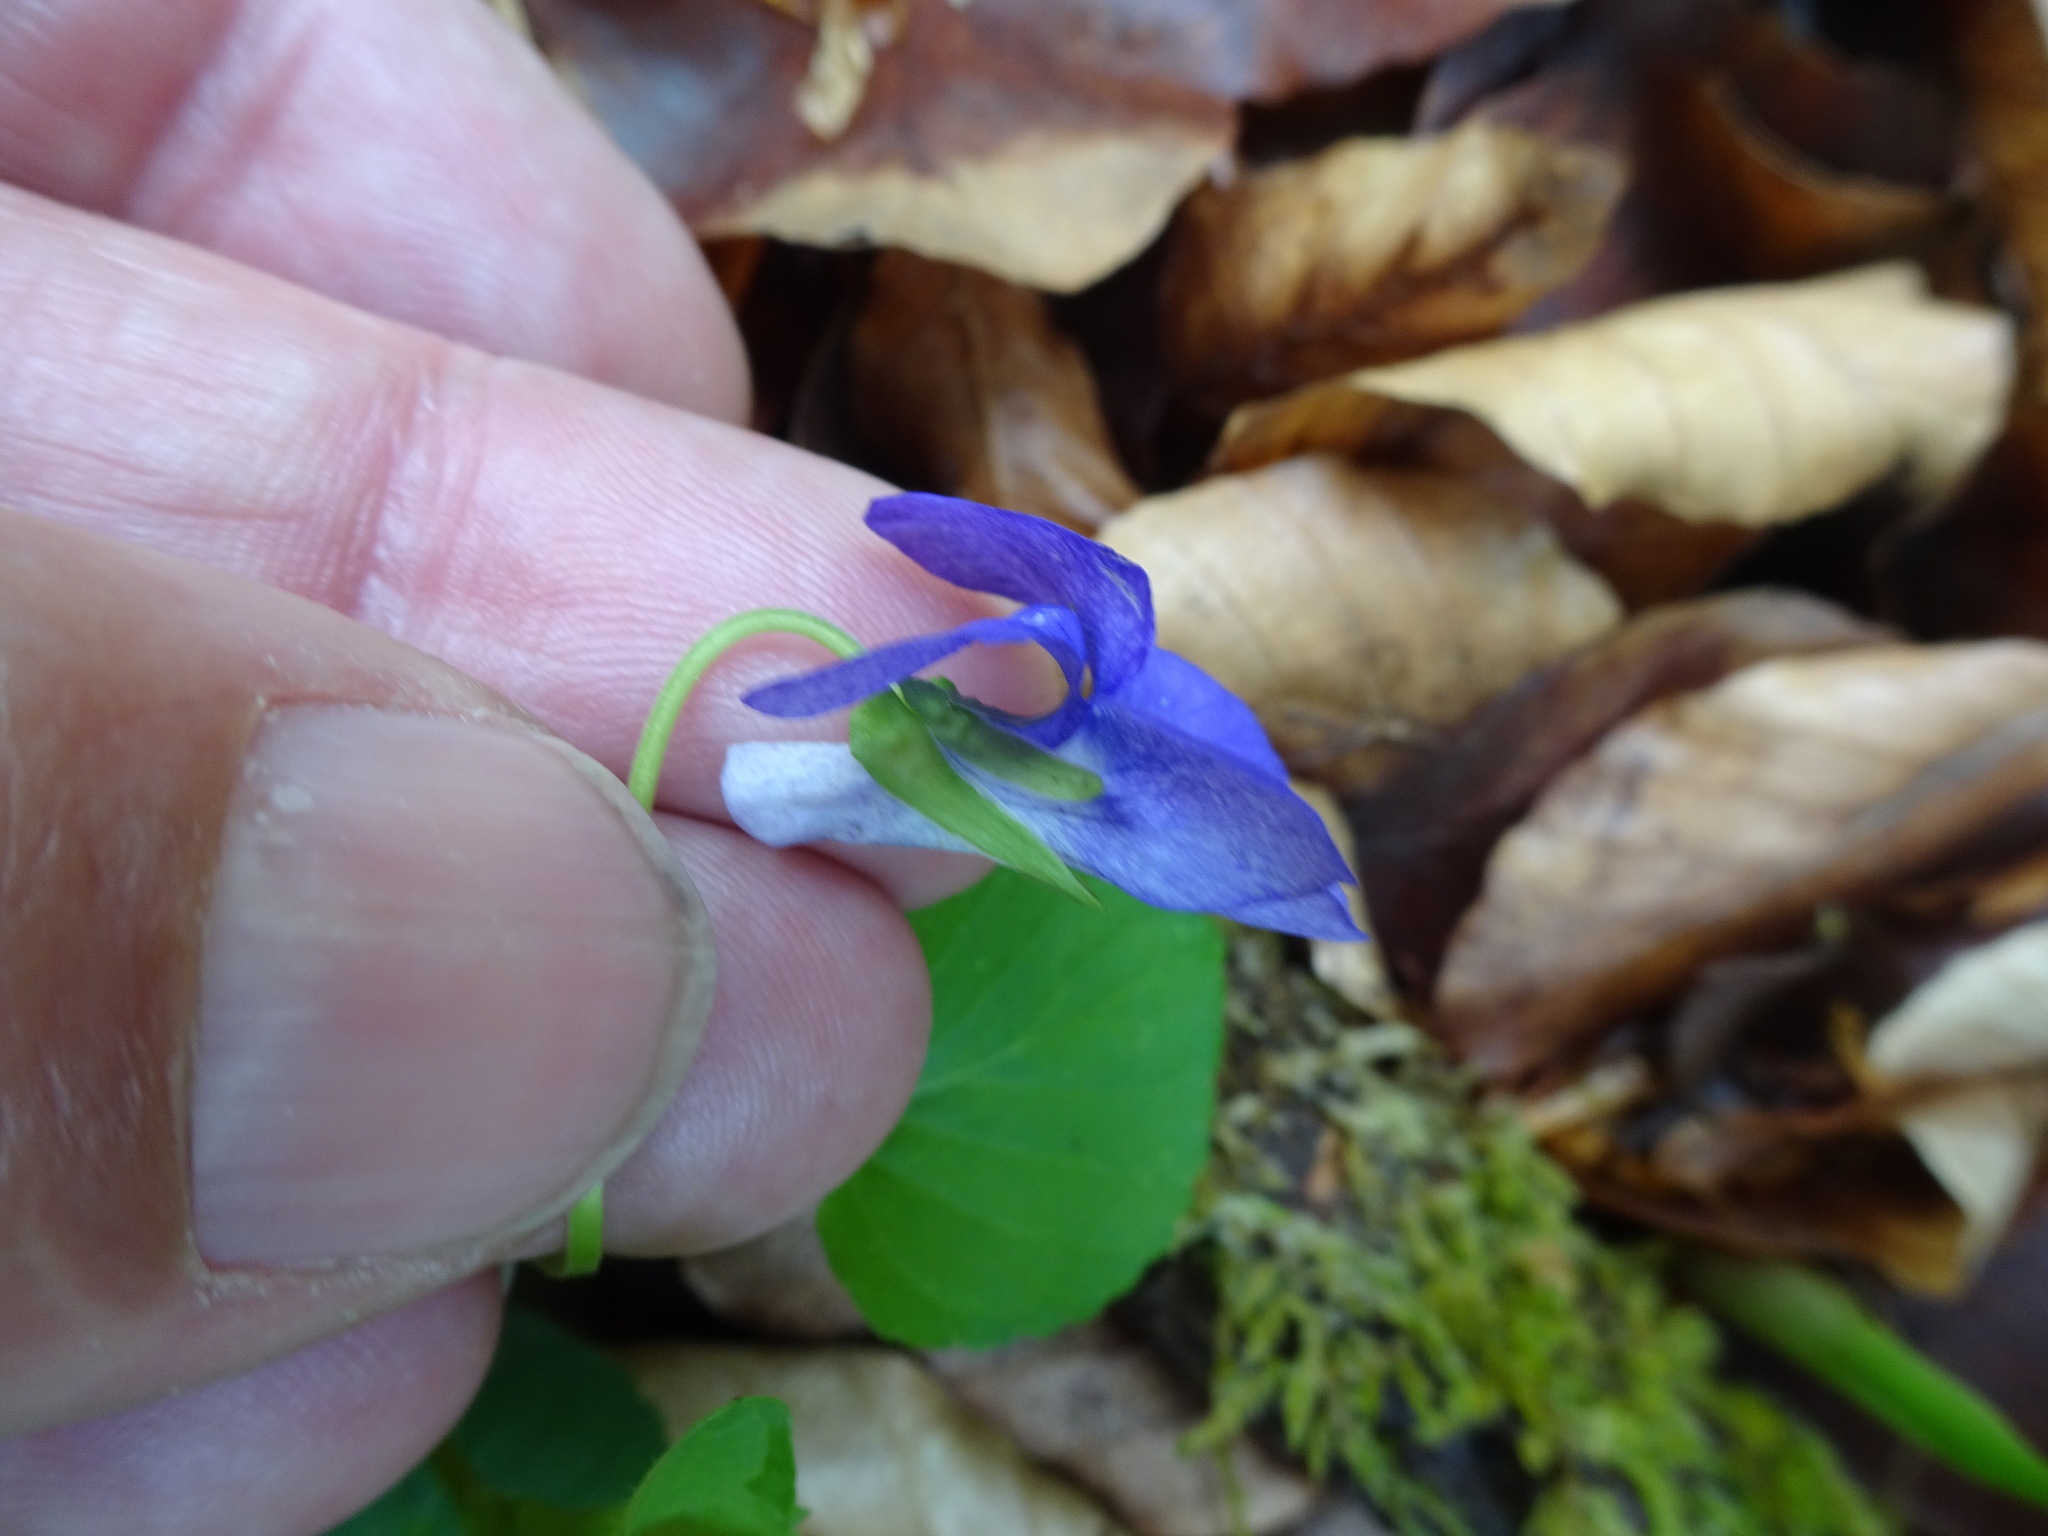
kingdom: Plantae
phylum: Tracheophyta
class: Magnoliopsida
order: Malpighiales
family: Violaceae
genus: Viola
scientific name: Viola riviniana
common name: Common dog-violet
